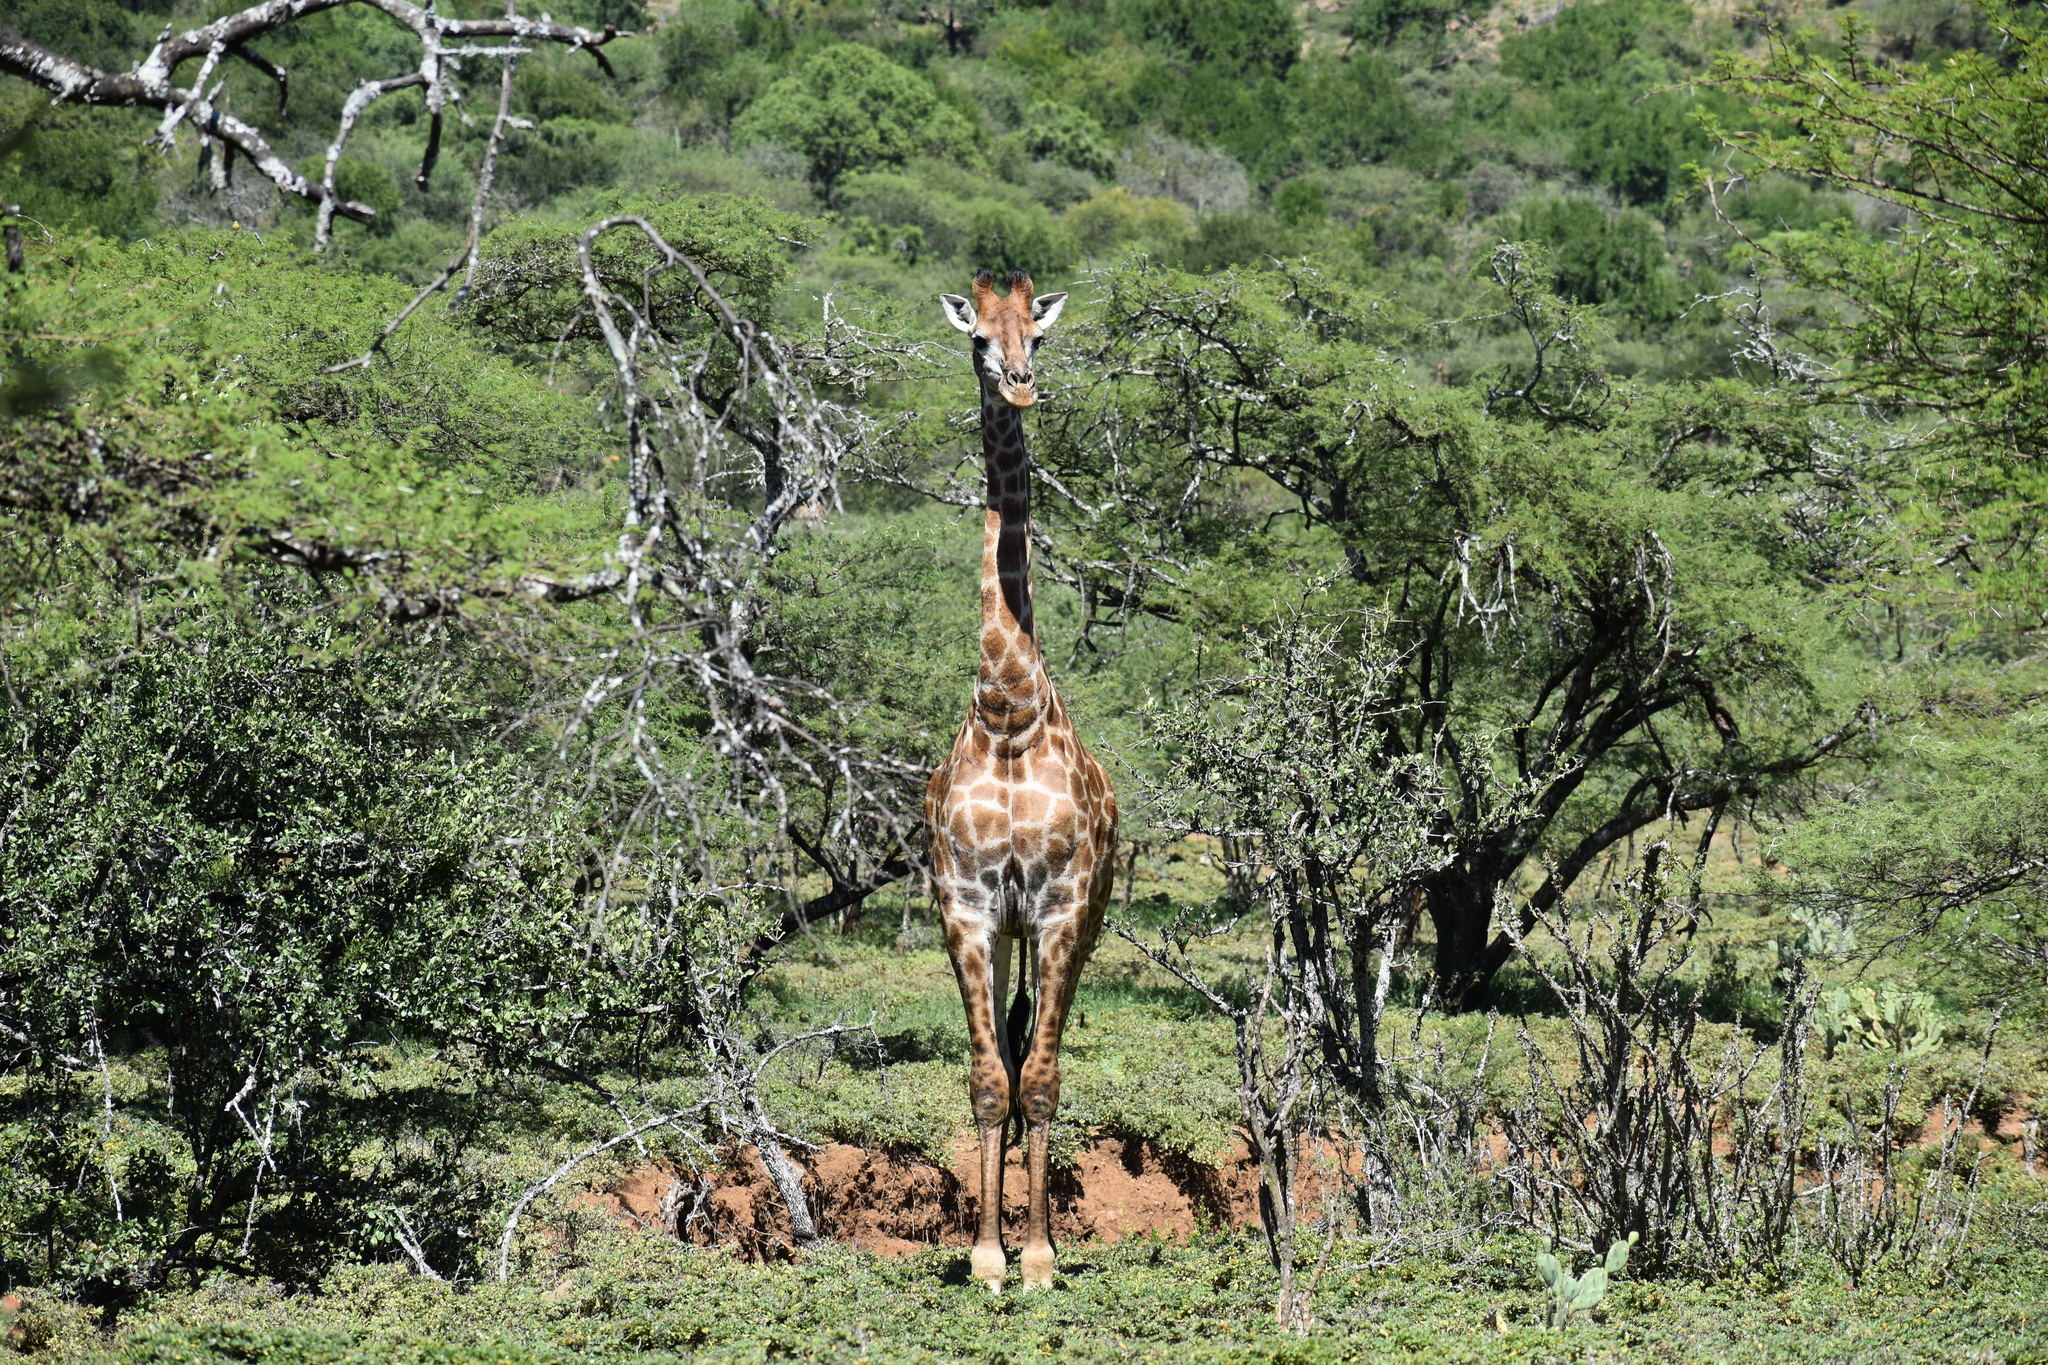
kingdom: Animalia
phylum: Chordata
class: Mammalia
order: Artiodactyla
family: Giraffidae
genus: Giraffa
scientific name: Giraffa giraffa
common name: Southern giraffe
